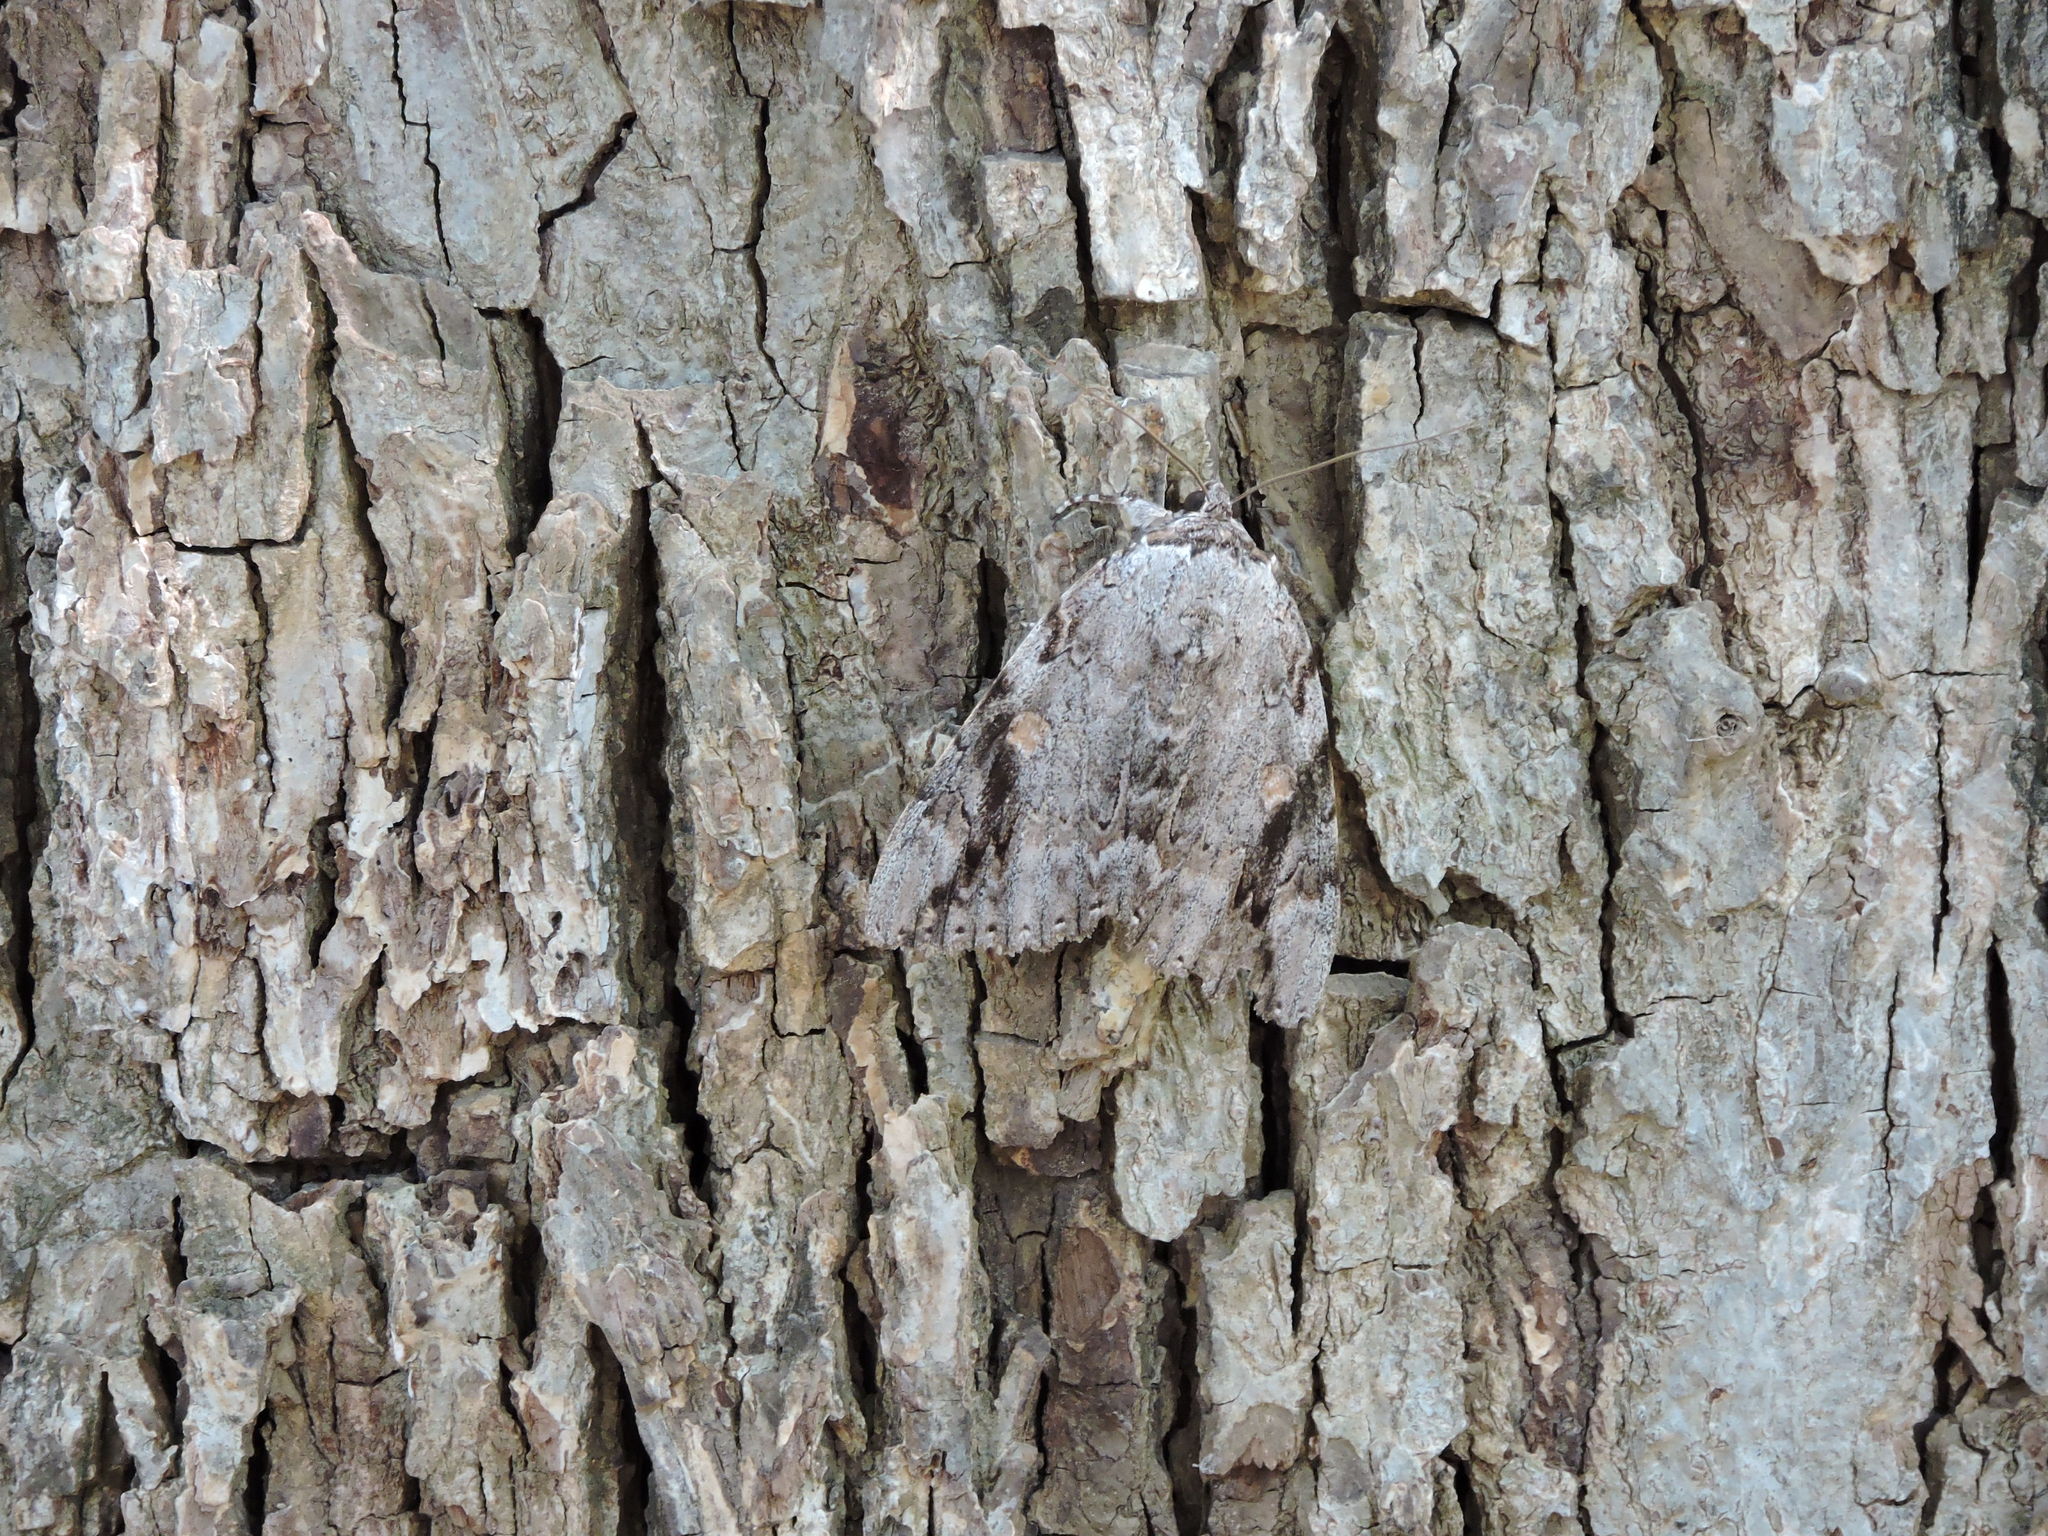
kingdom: Animalia
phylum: Arthropoda
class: Insecta
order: Lepidoptera
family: Erebidae
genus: Catocala
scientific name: Catocala maestosa
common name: Sad underwing
